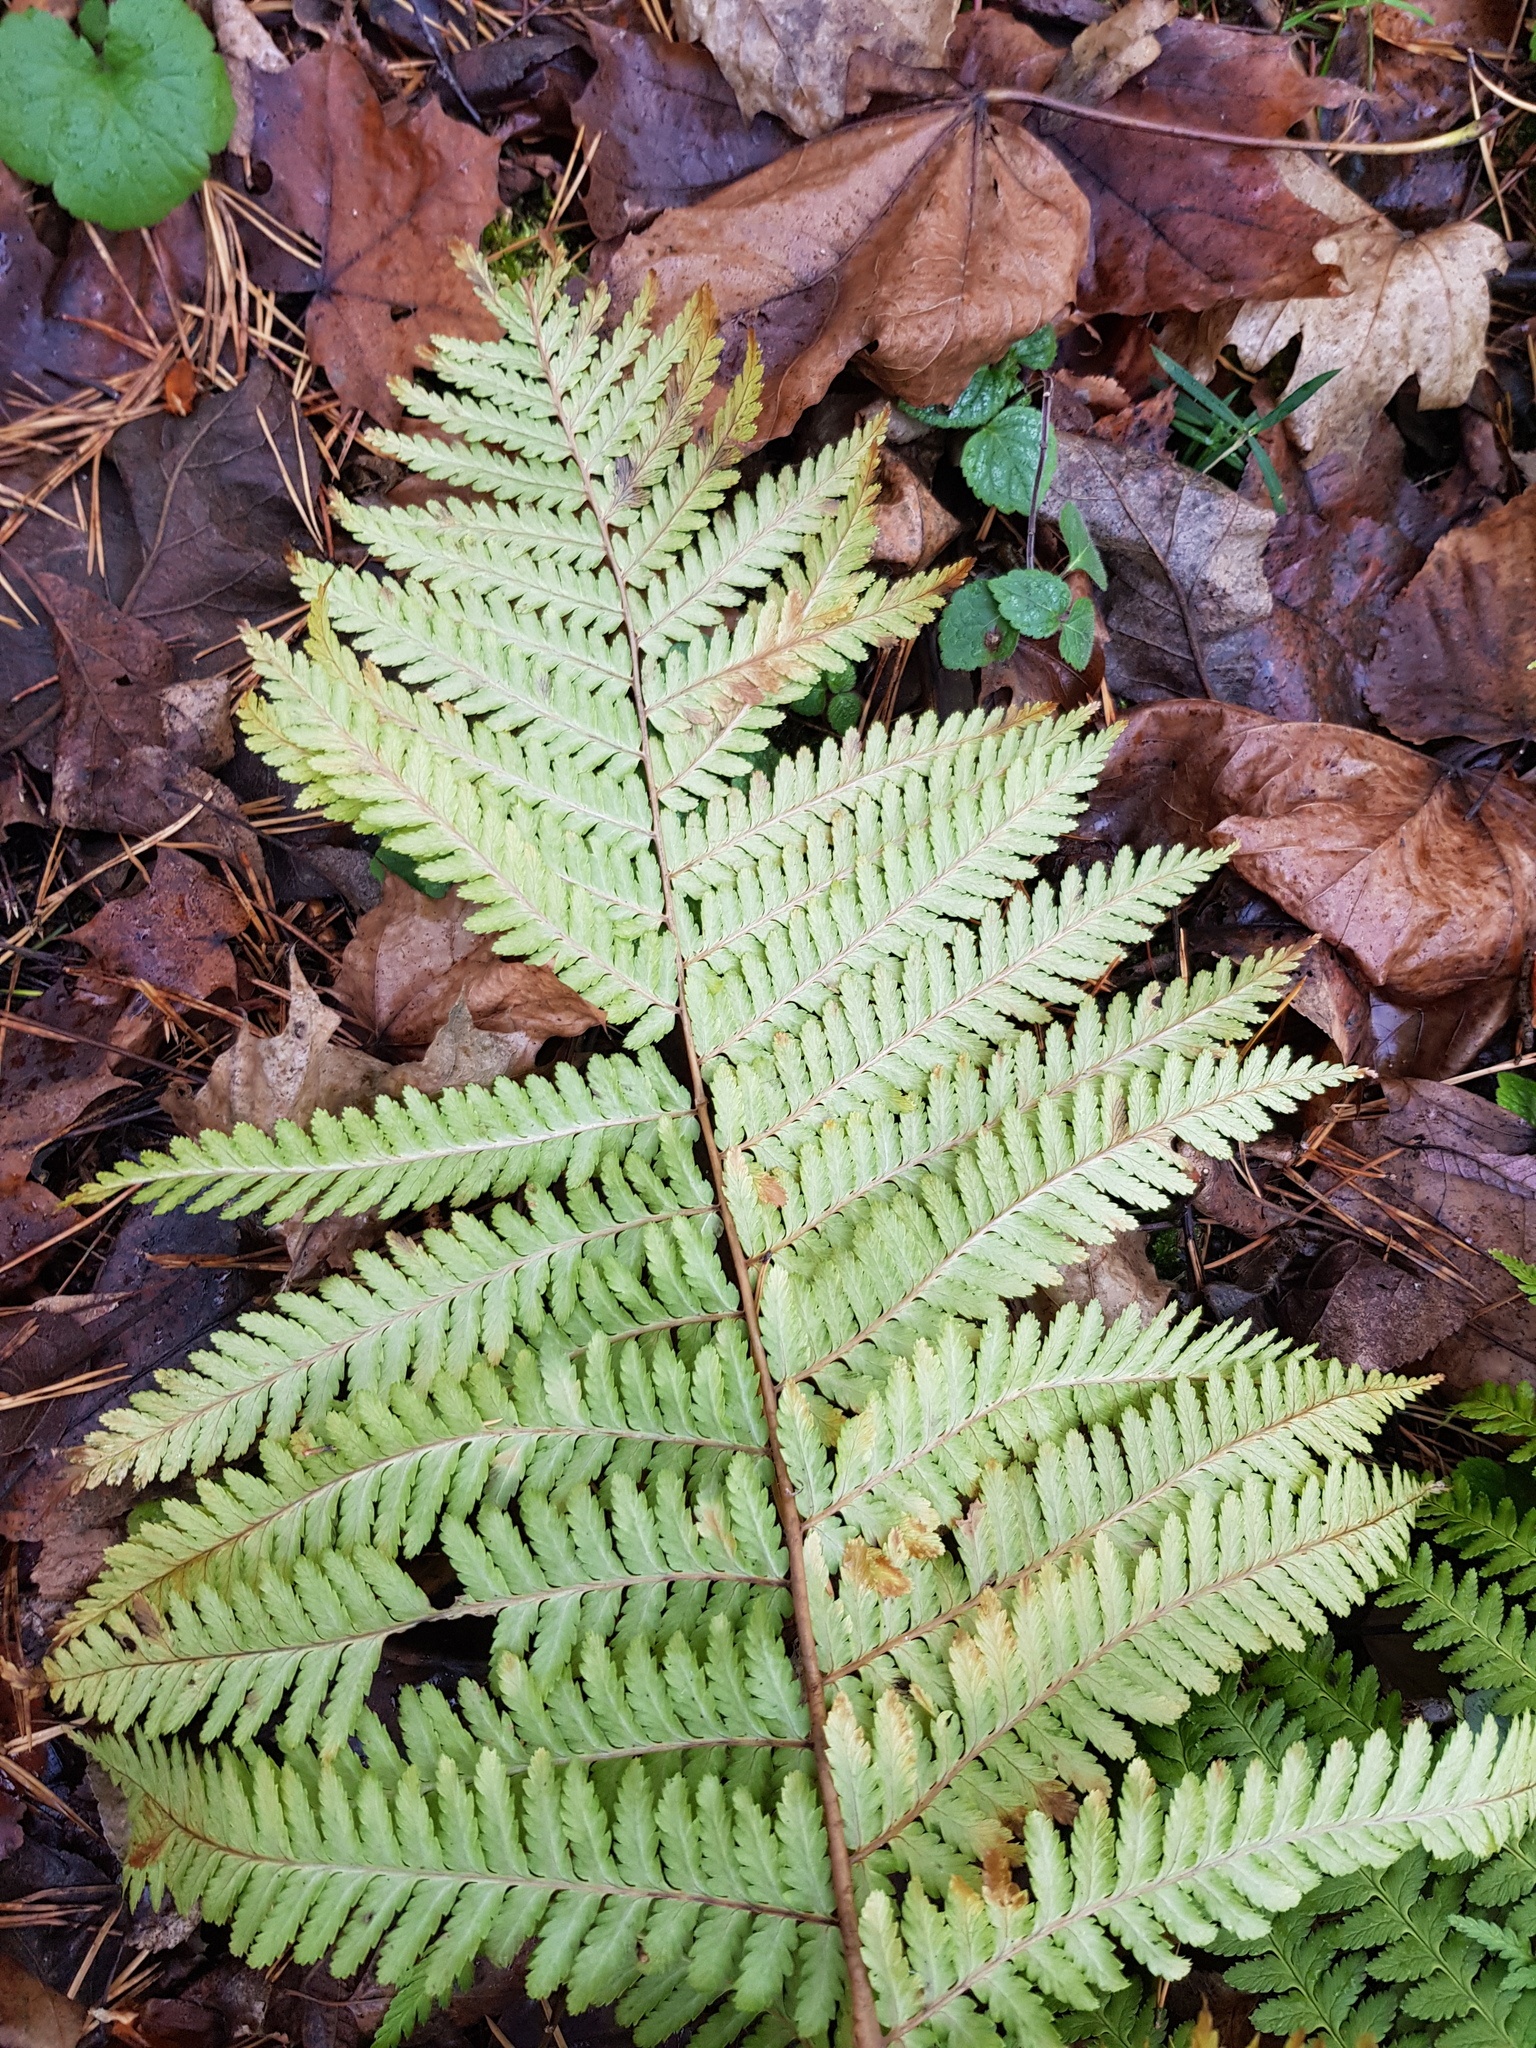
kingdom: Plantae
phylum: Tracheophyta
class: Polypodiopsida
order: Polypodiales
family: Dryopteridaceae
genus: Dryopteris
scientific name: Dryopteris filix-mas
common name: Male fern
